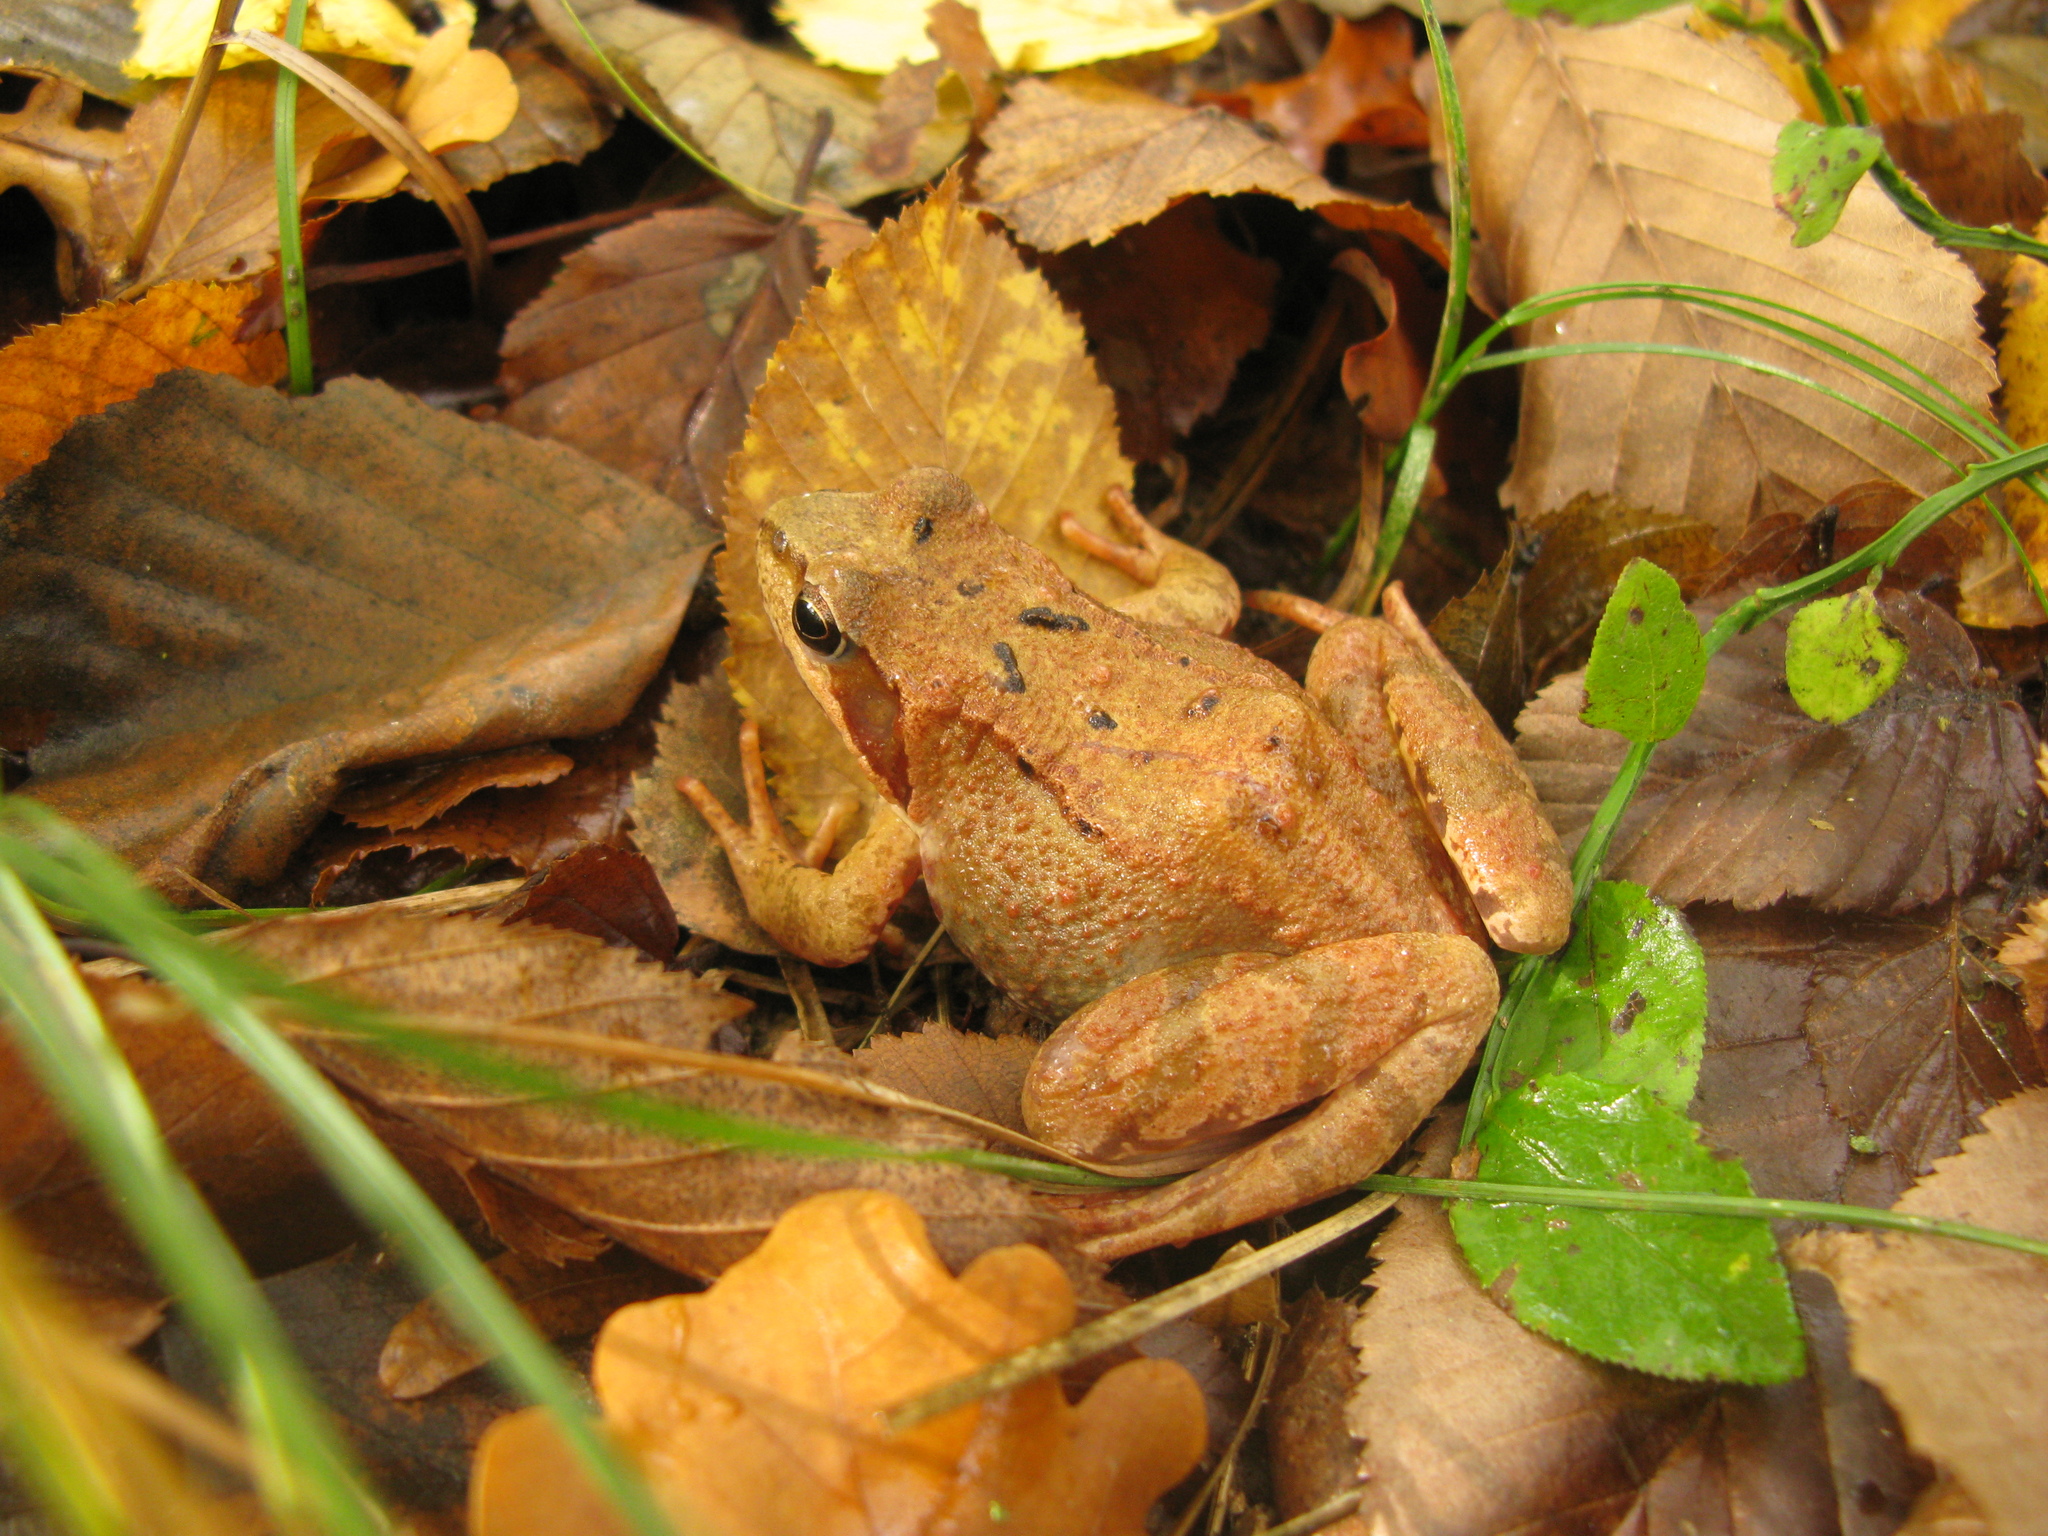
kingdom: Animalia
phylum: Chordata
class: Amphibia
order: Anura
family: Ranidae
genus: Rana
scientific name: Rana temporaria
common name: Common frog
